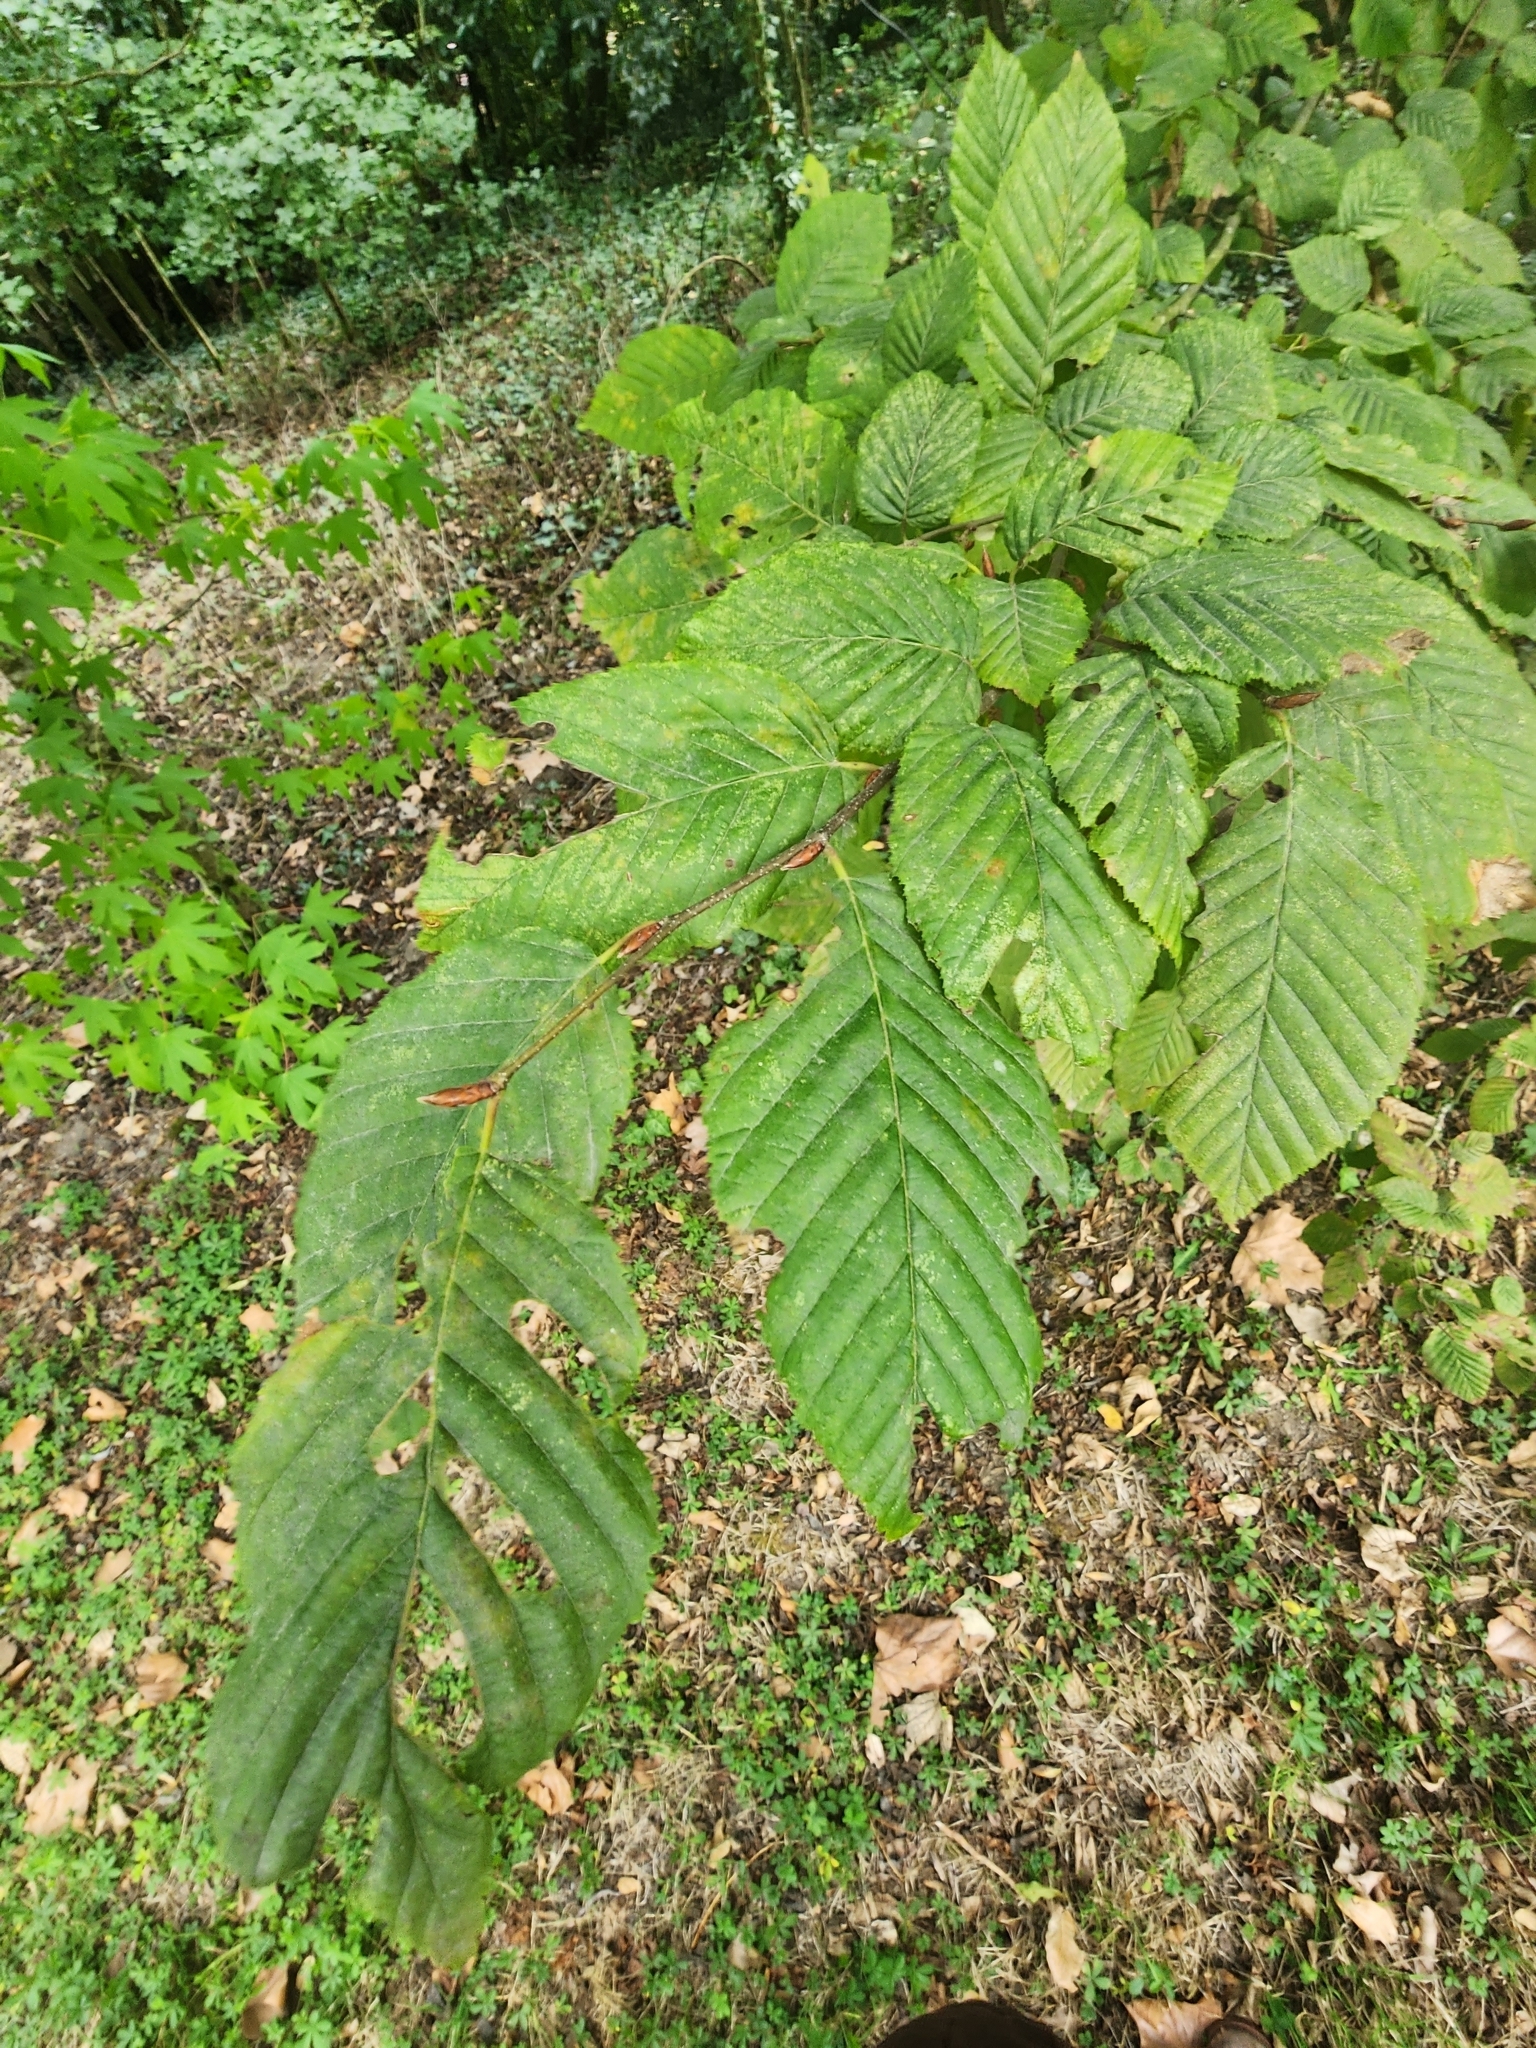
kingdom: Plantae
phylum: Tracheophyta
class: Magnoliopsida
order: Fagales
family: Betulaceae
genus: Carpinus
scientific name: Carpinus betulus
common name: Hornbeam
